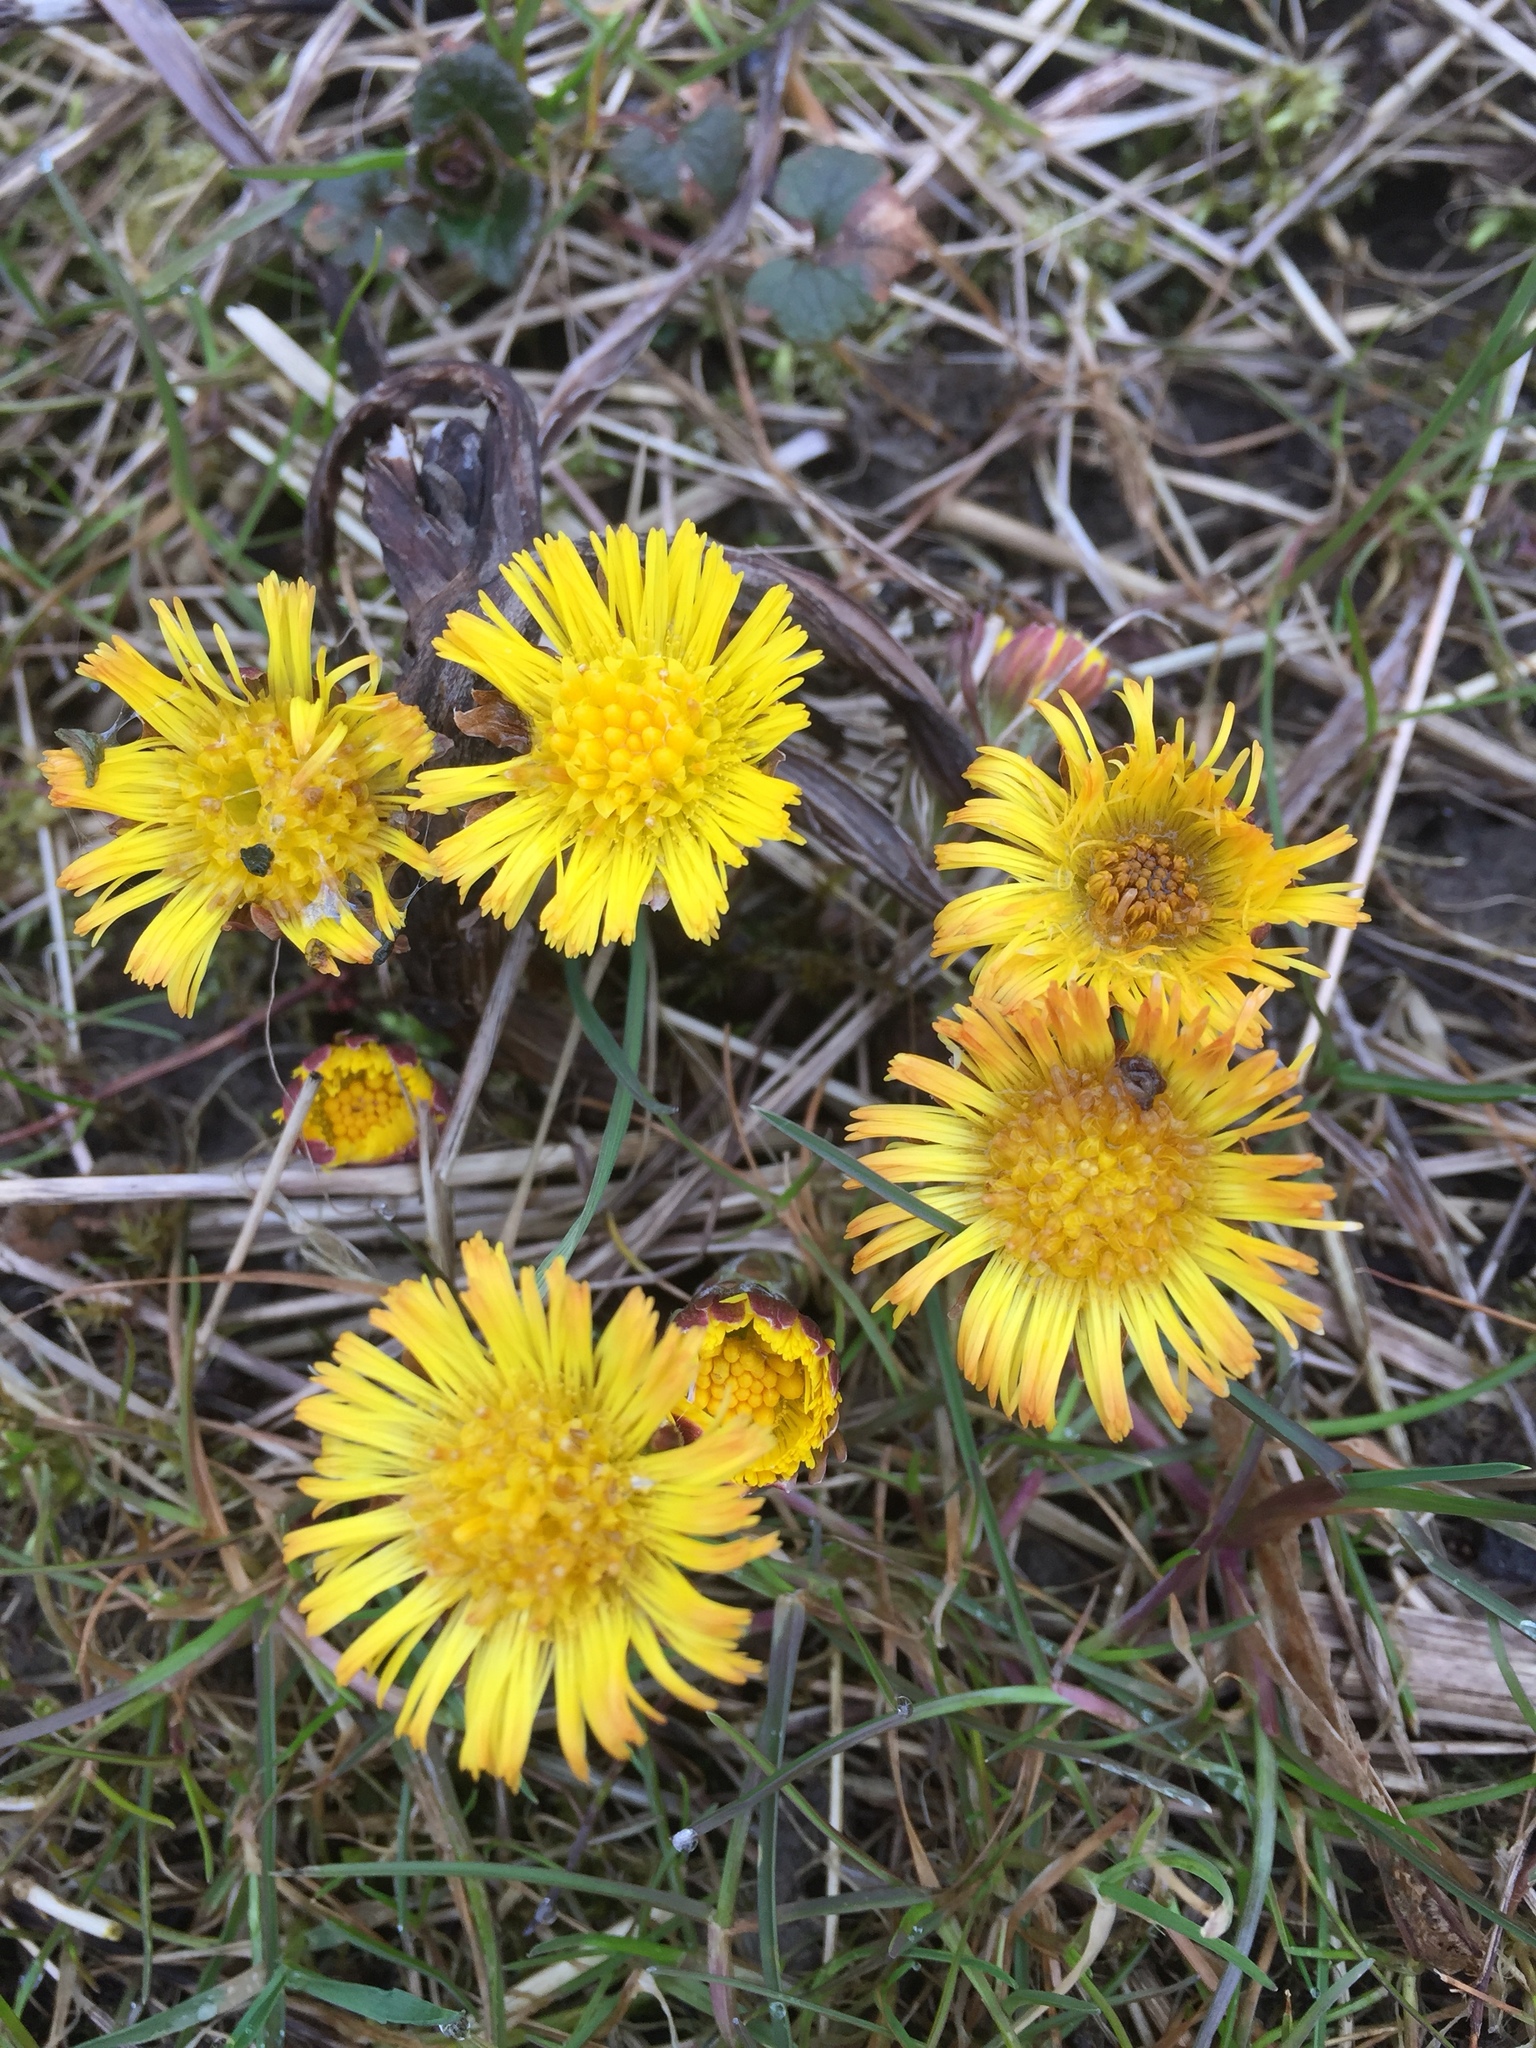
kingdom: Plantae
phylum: Tracheophyta
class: Magnoliopsida
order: Asterales
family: Asteraceae
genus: Tussilago
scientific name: Tussilago farfara
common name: Coltsfoot
